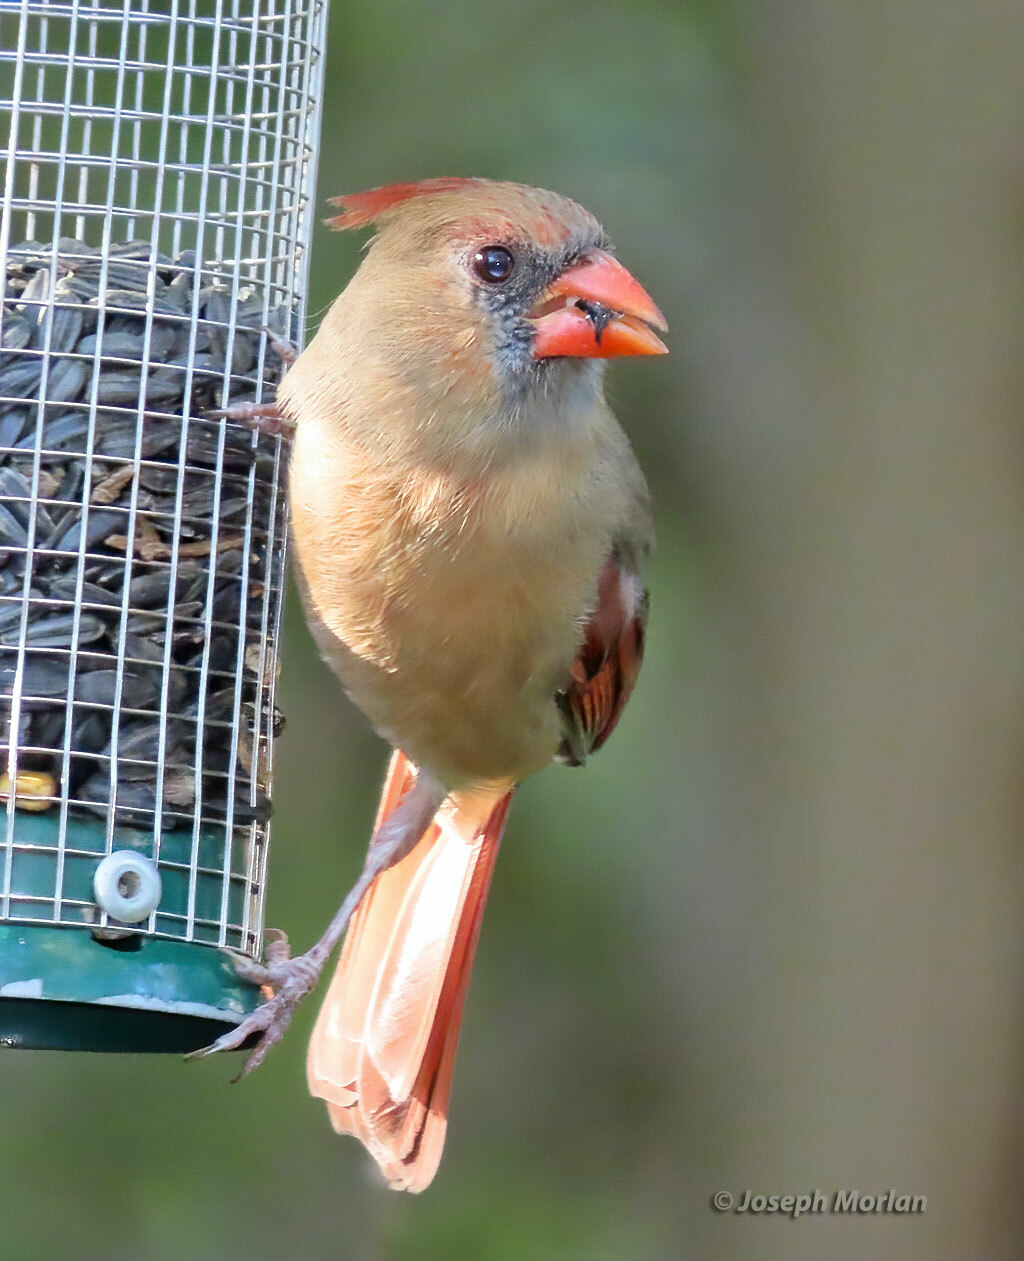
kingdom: Animalia
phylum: Chordata
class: Aves
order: Passeriformes
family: Cardinalidae
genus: Cardinalis
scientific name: Cardinalis cardinalis
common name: Northern cardinal
